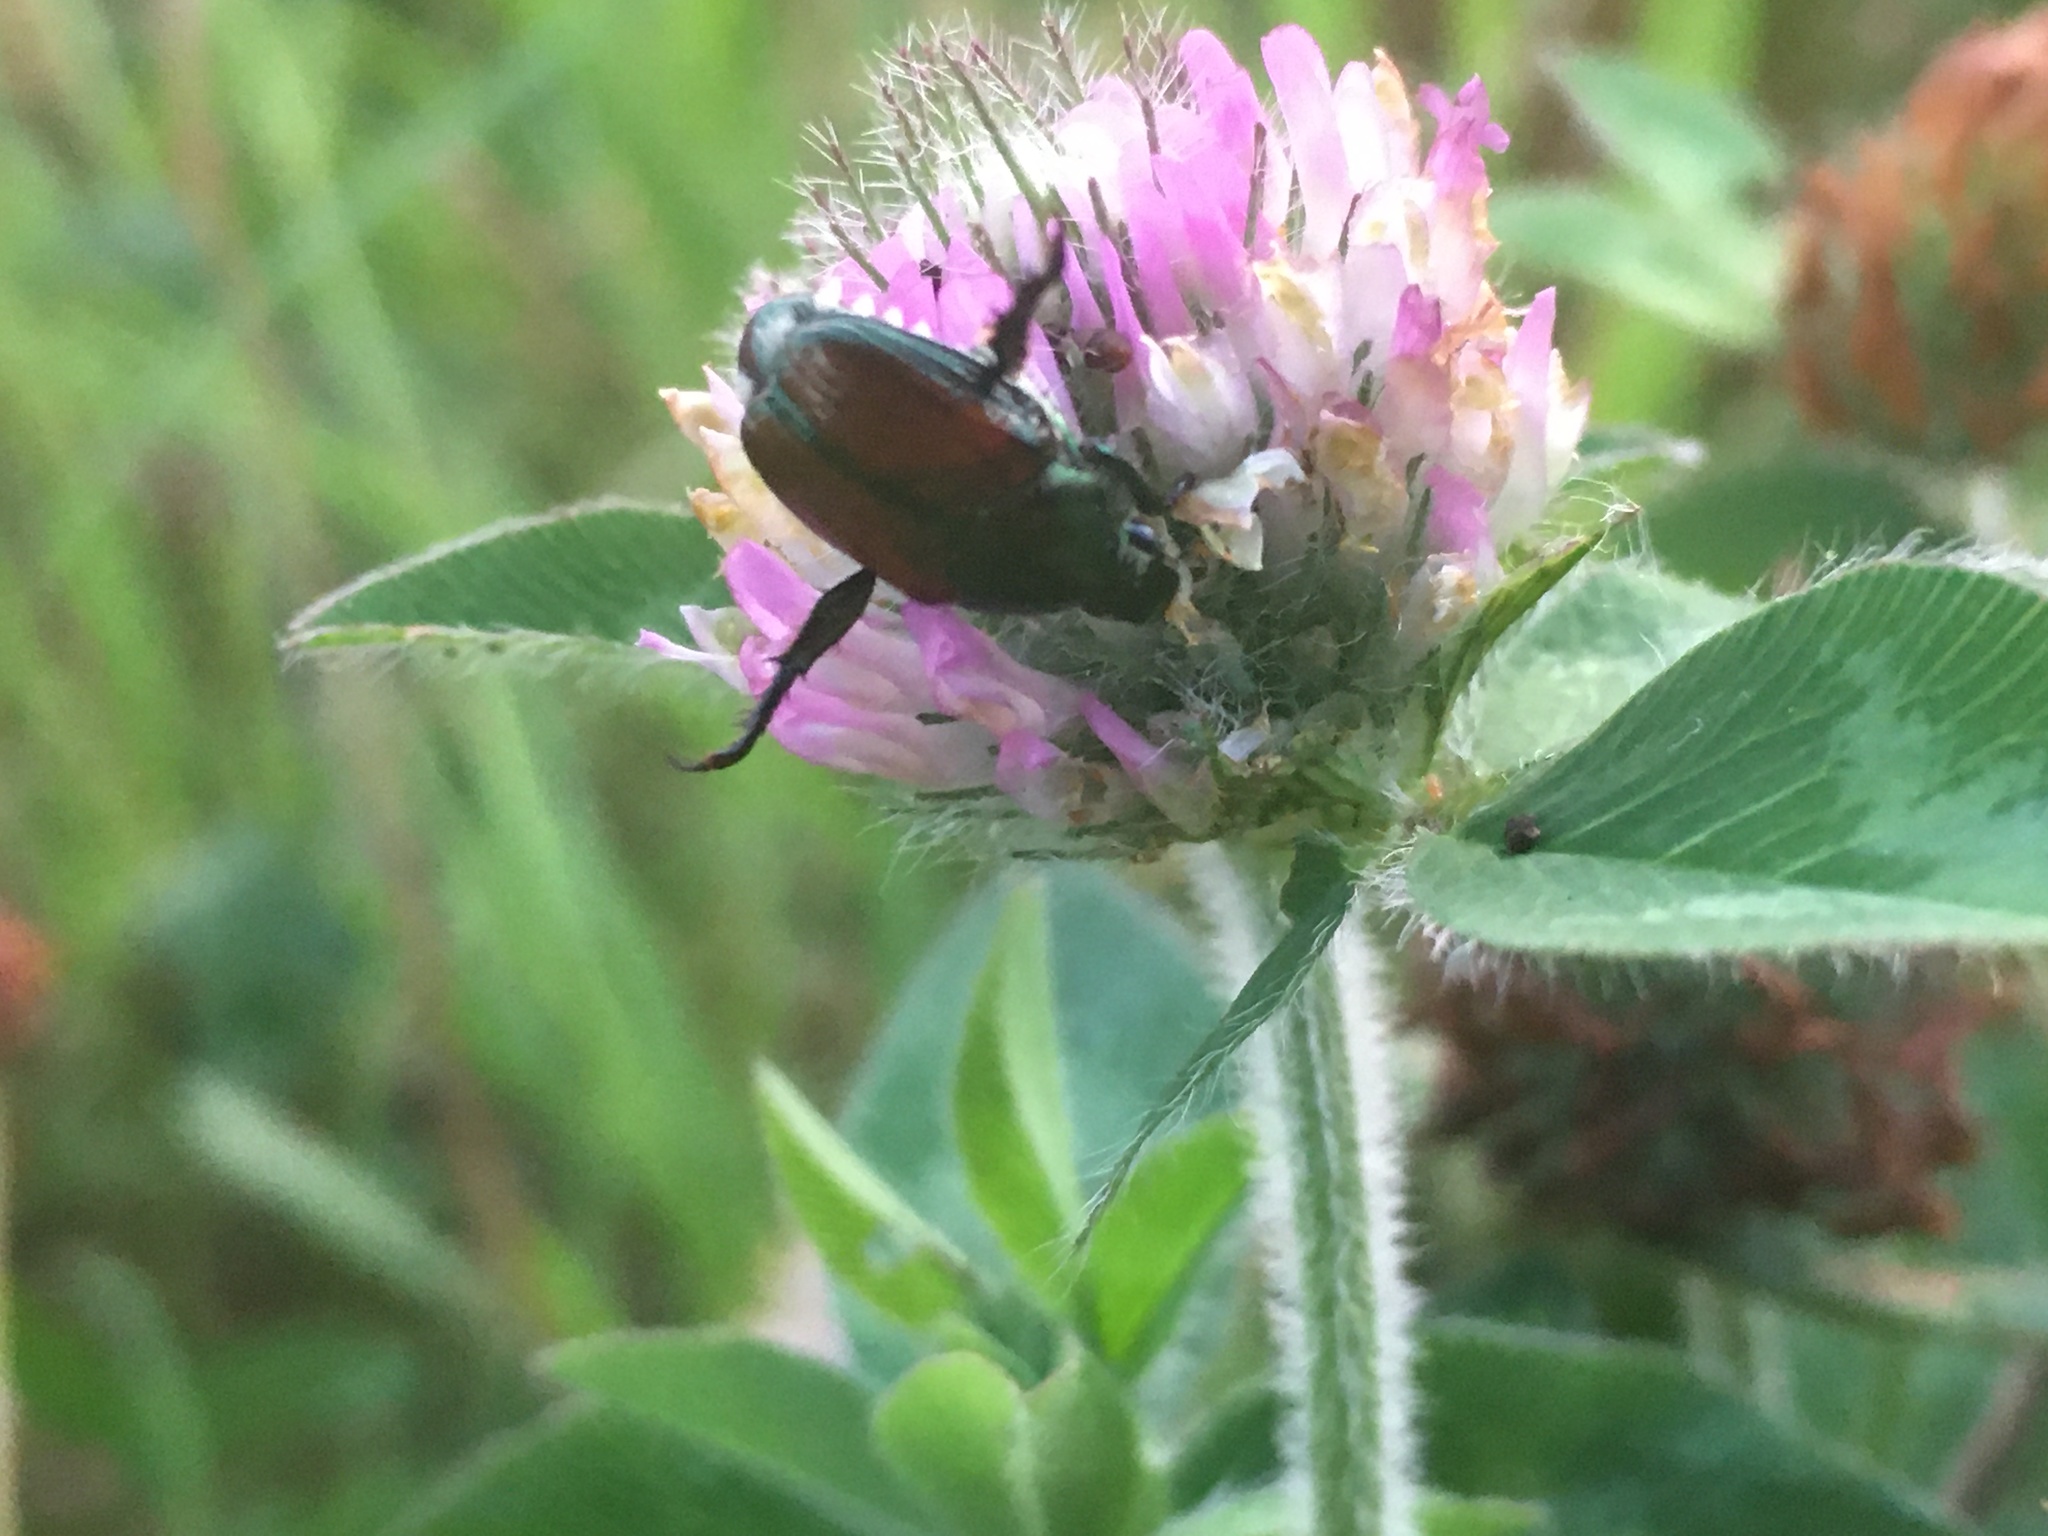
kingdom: Animalia
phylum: Arthropoda
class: Insecta
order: Coleoptera
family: Scarabaeidae
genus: Popillia
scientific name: Popillia japonica
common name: Japanese beetle
